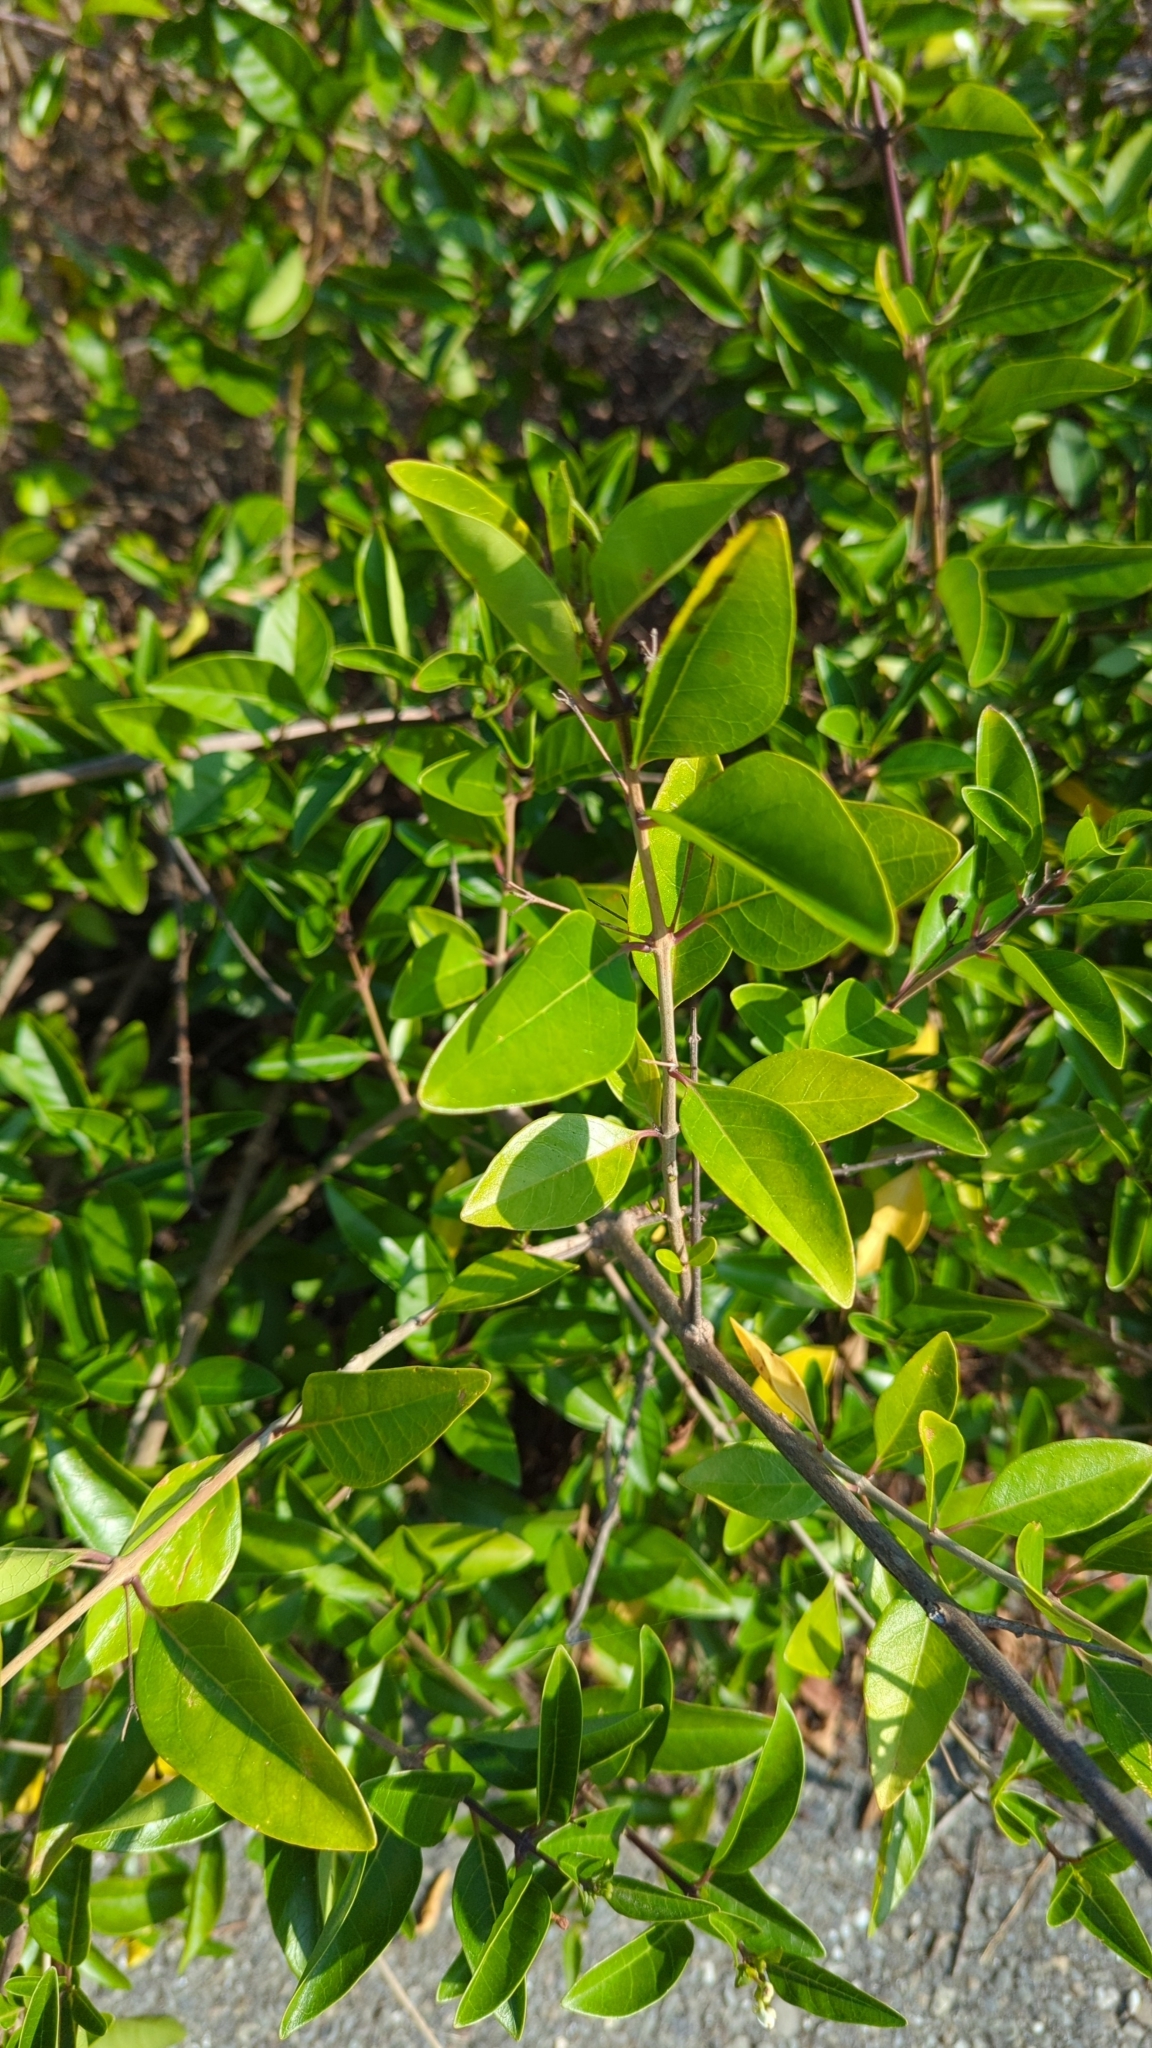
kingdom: Plantae
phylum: Tracheophyta
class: Magnoliopsida
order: Lamiales
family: Lamiaceae
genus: Volkameria
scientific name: Volkameria inermis
